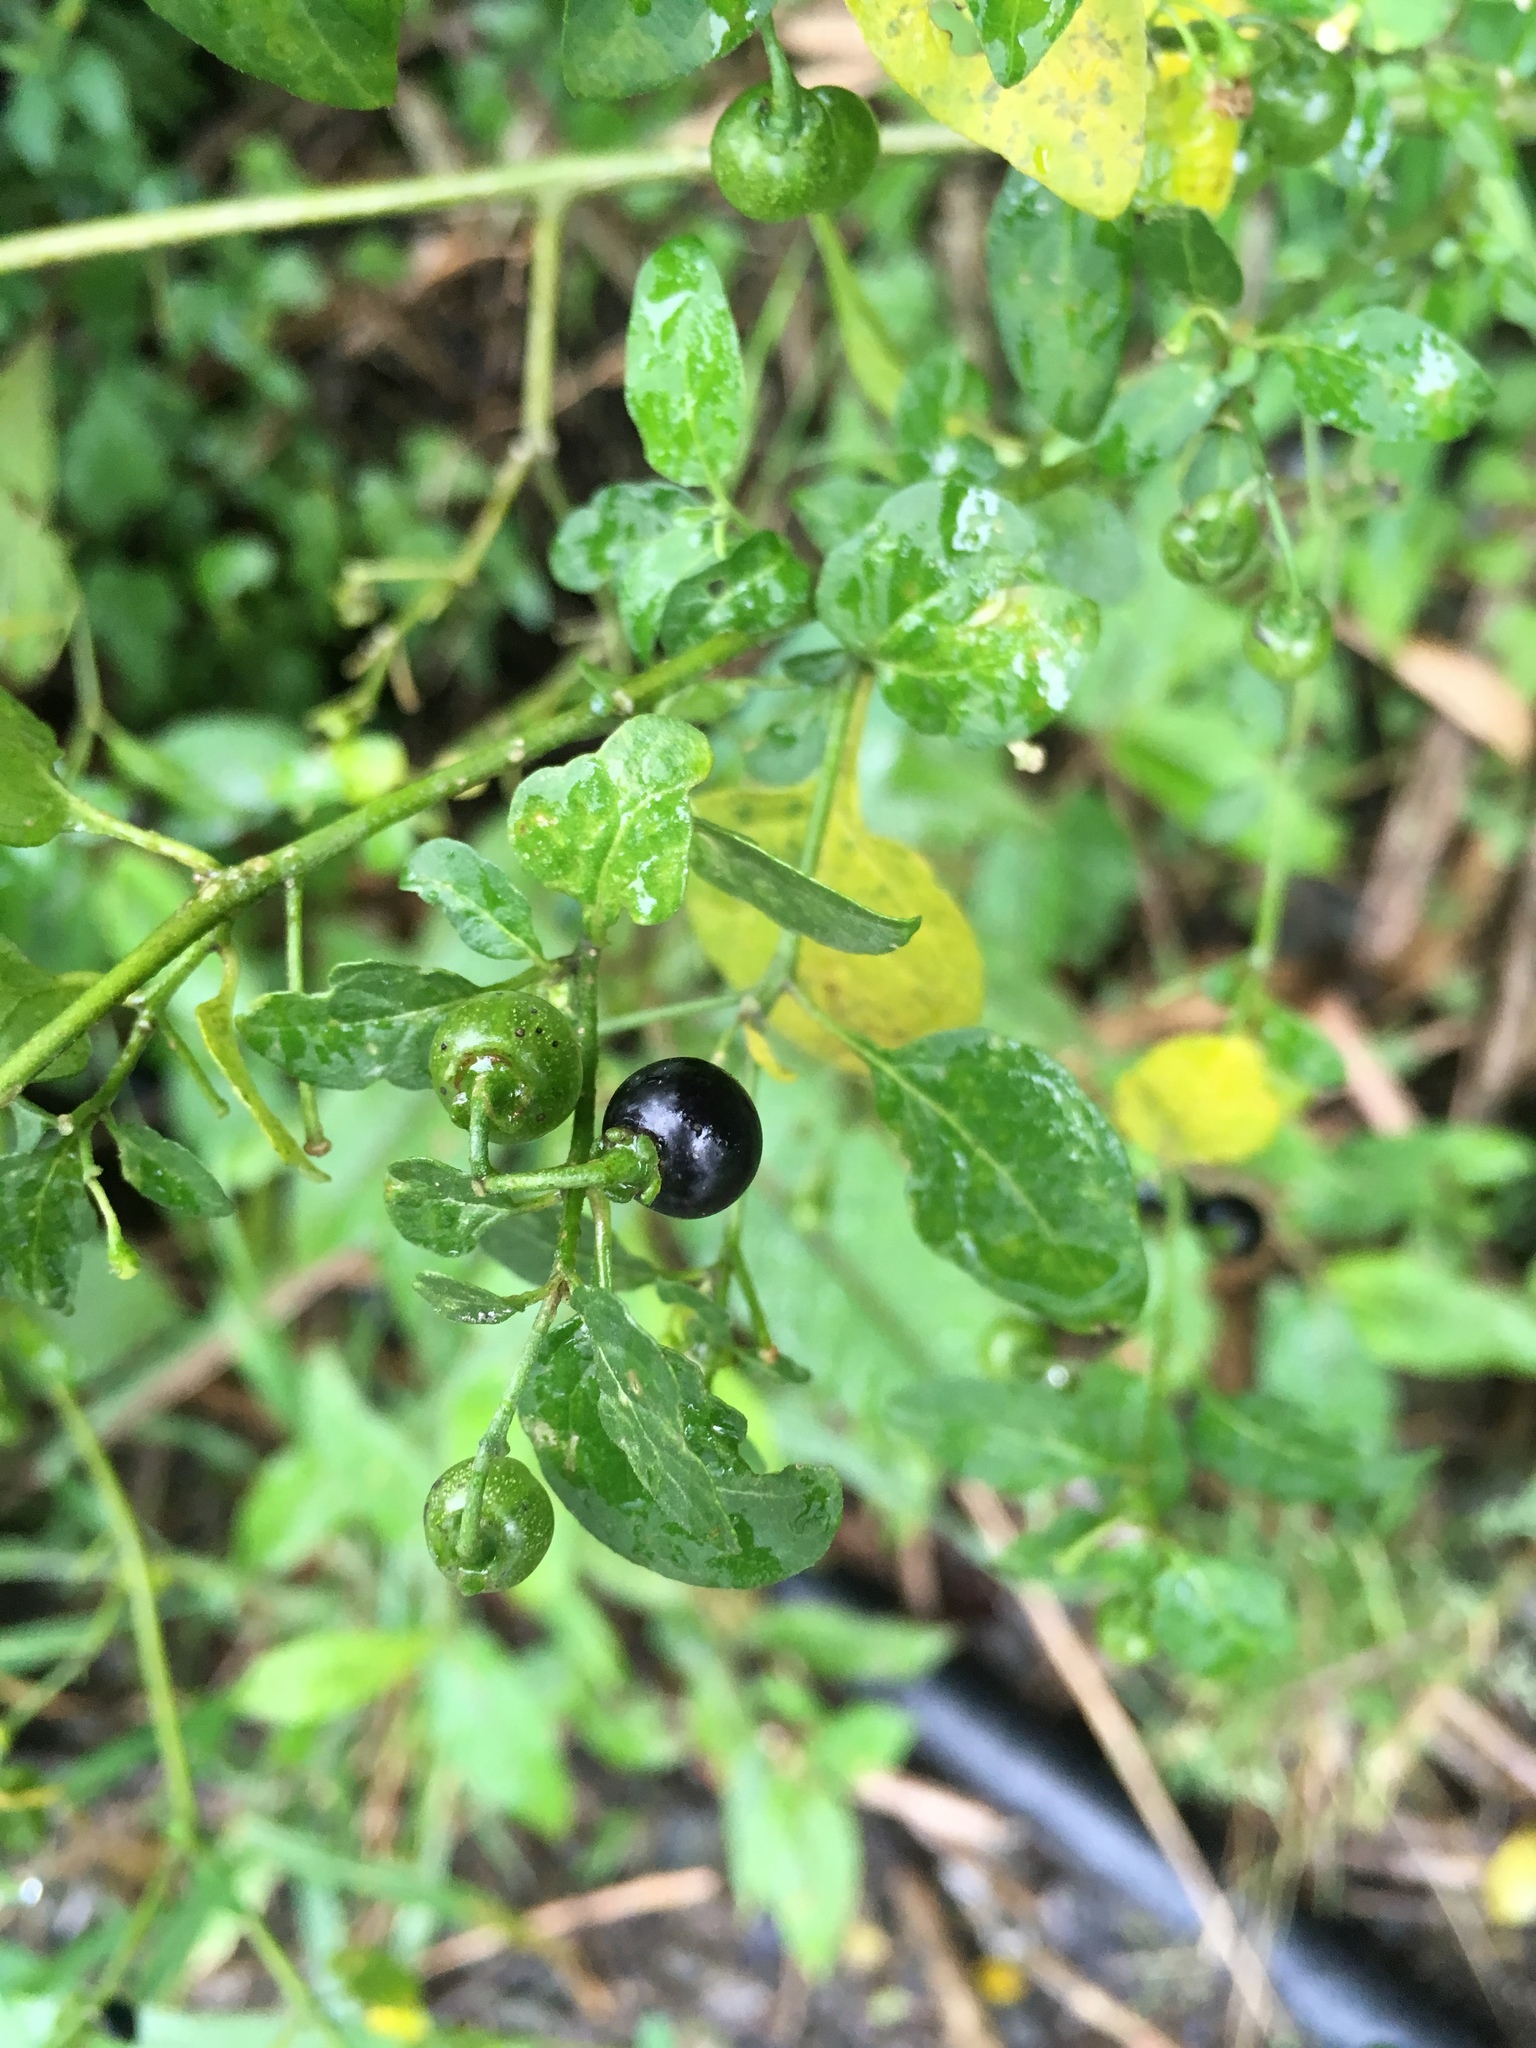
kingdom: Plantae
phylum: Tracheophyta
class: Magnoliopsida
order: Solanales
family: Solanaceae
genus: Solanum
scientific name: Solanum americanum
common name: American black nightshade
